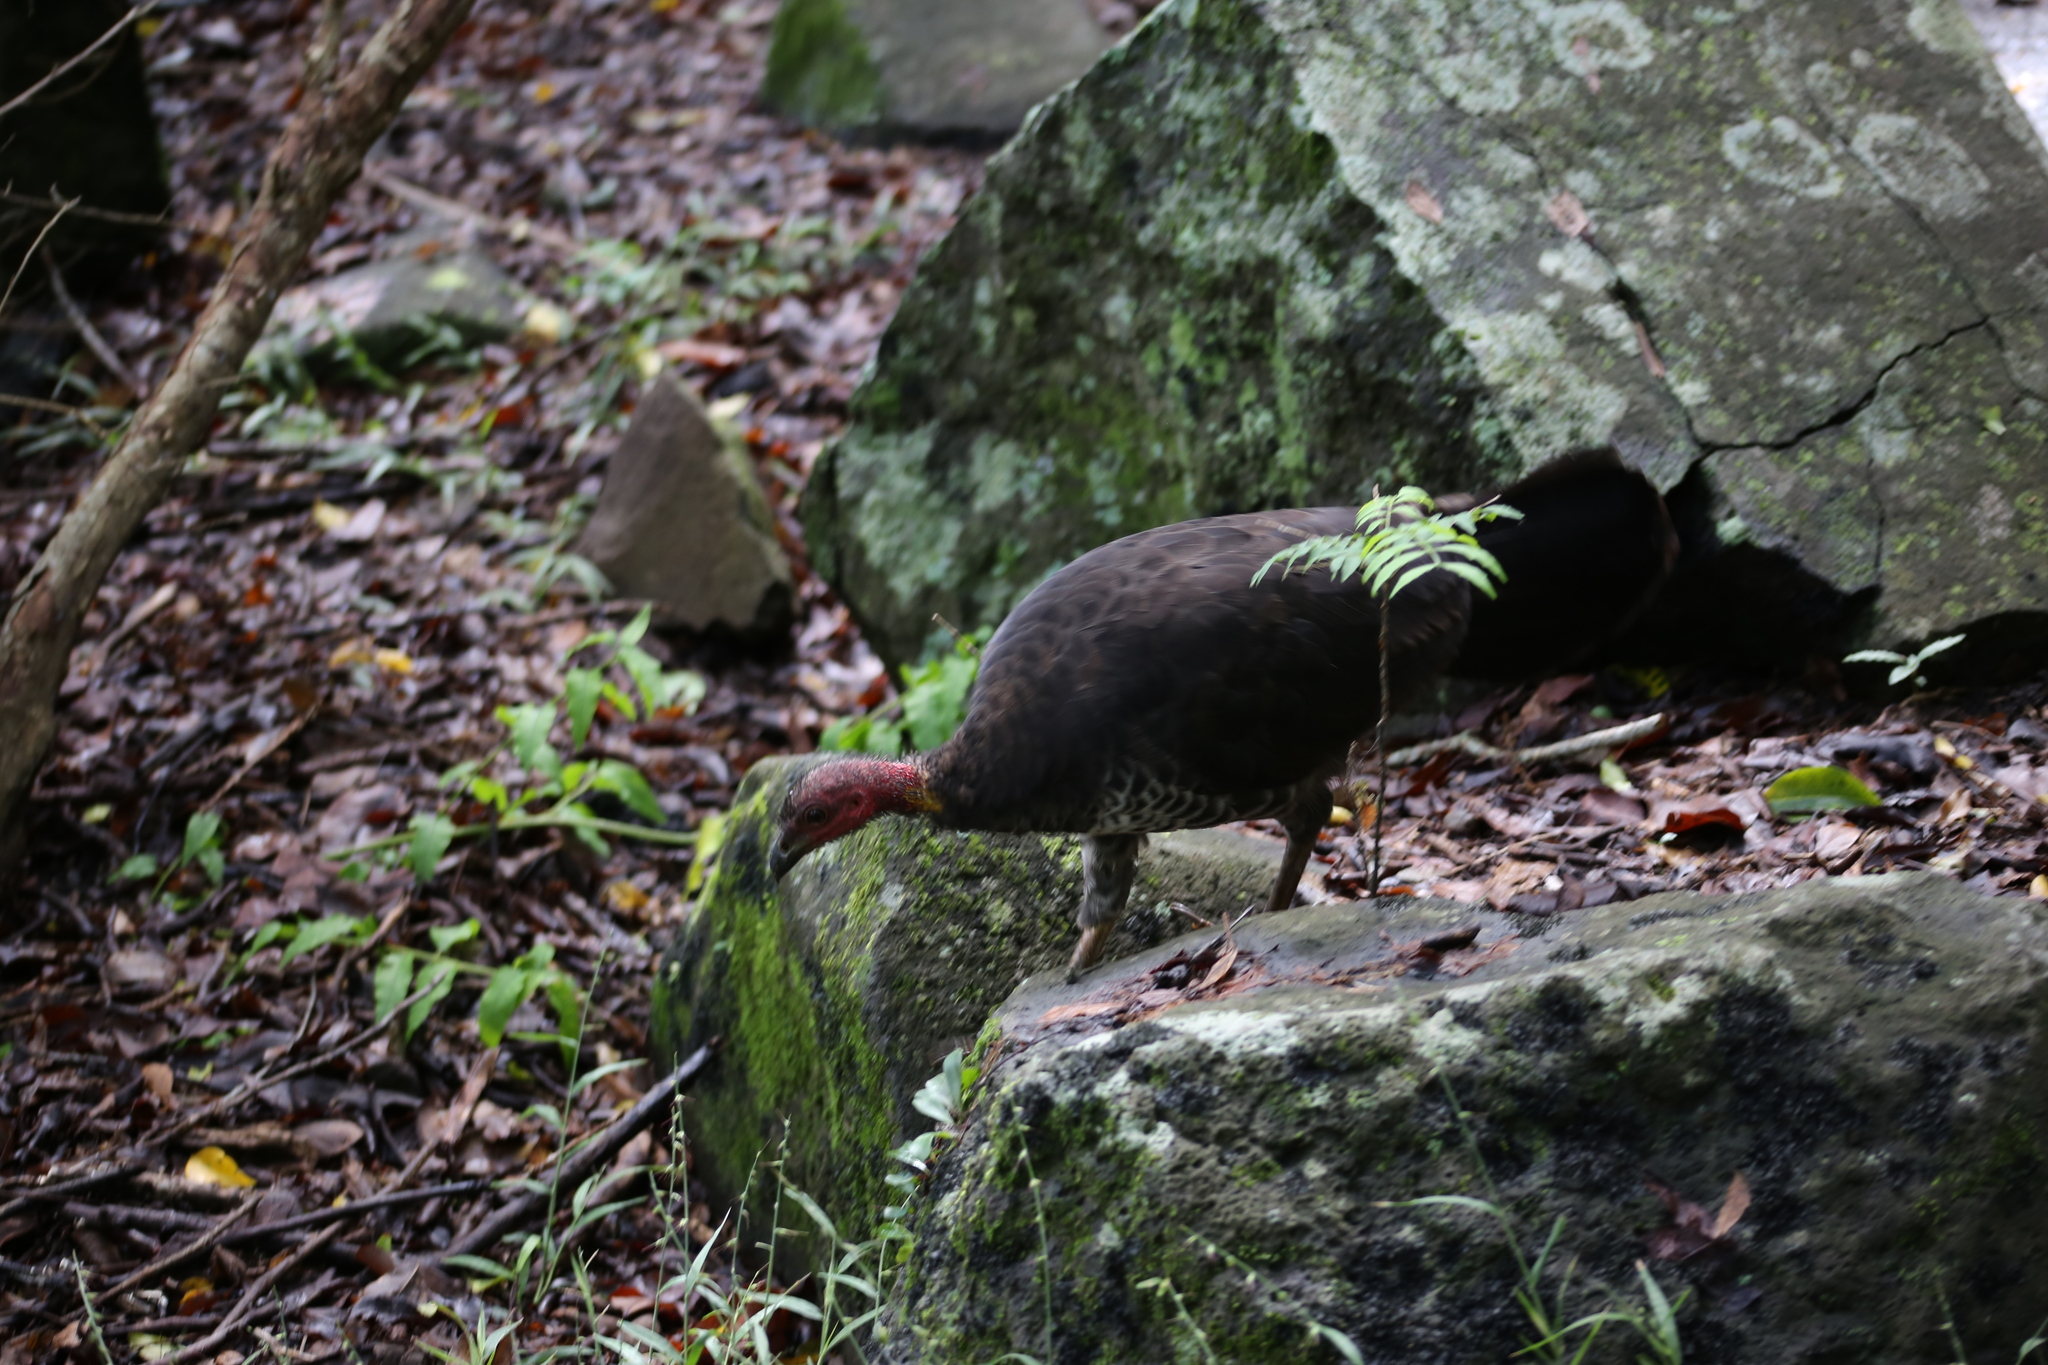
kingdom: Animalia
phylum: Chordata
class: Aves
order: Galliformes
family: Megapodiidae
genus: Alectura
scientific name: Alectura lathami
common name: Australian brushturkey
